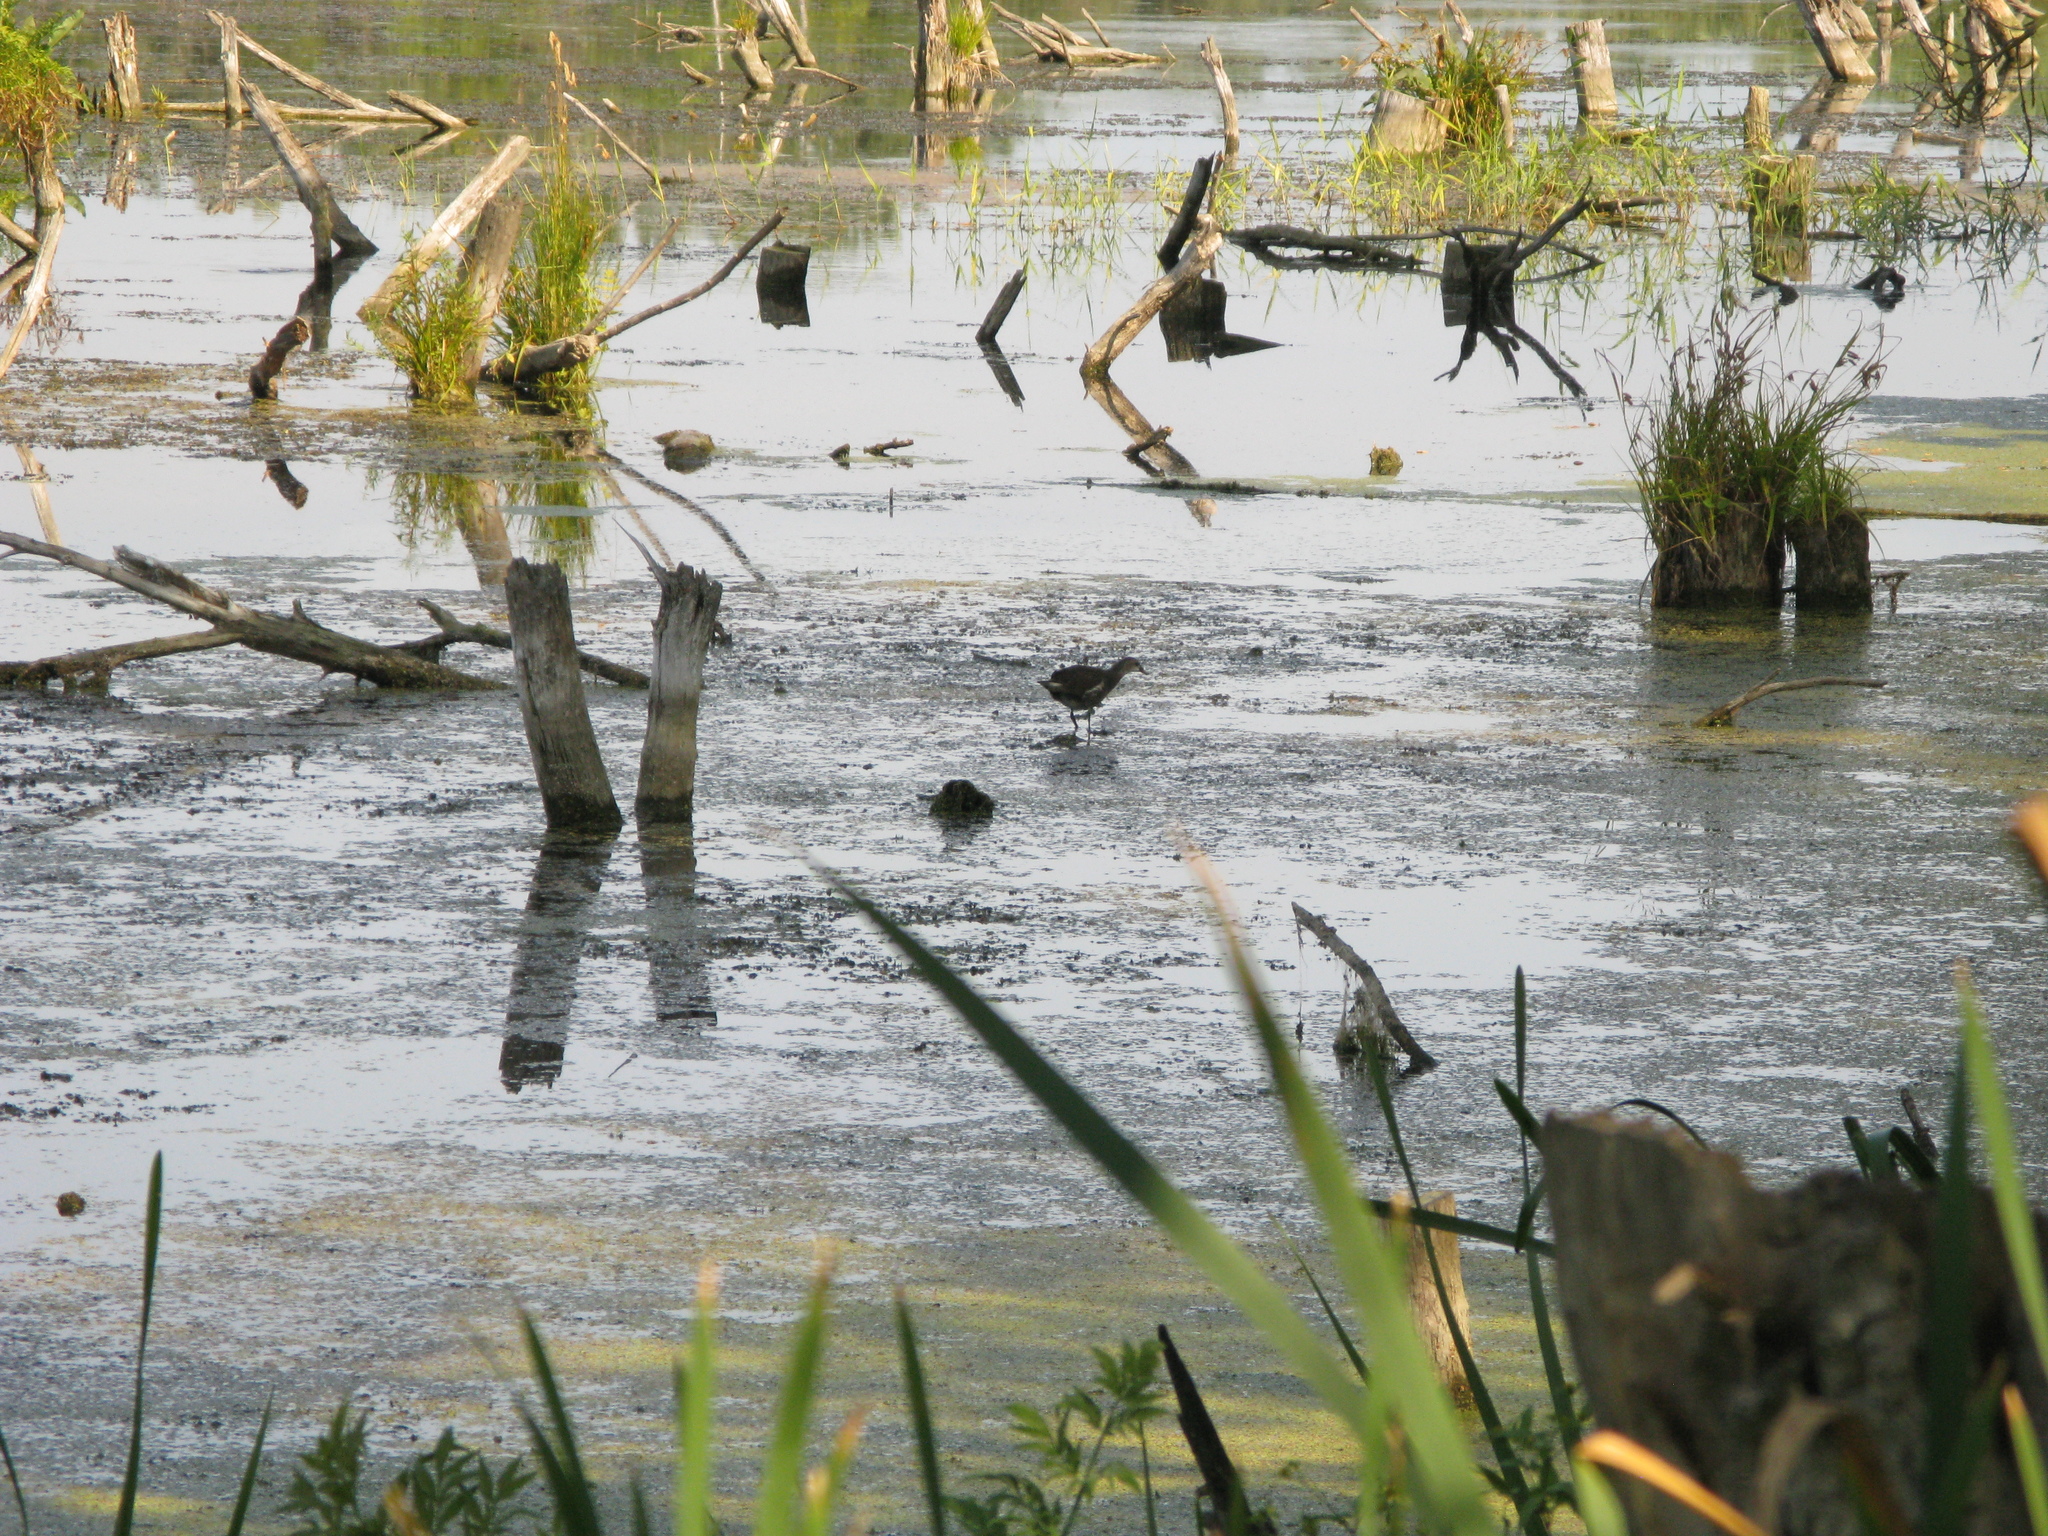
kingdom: Animalia
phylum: Chordata
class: Aves
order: Gruiformes
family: Rallidae
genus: Gallinula
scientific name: Gallinula chloropus
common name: Common moorhen
